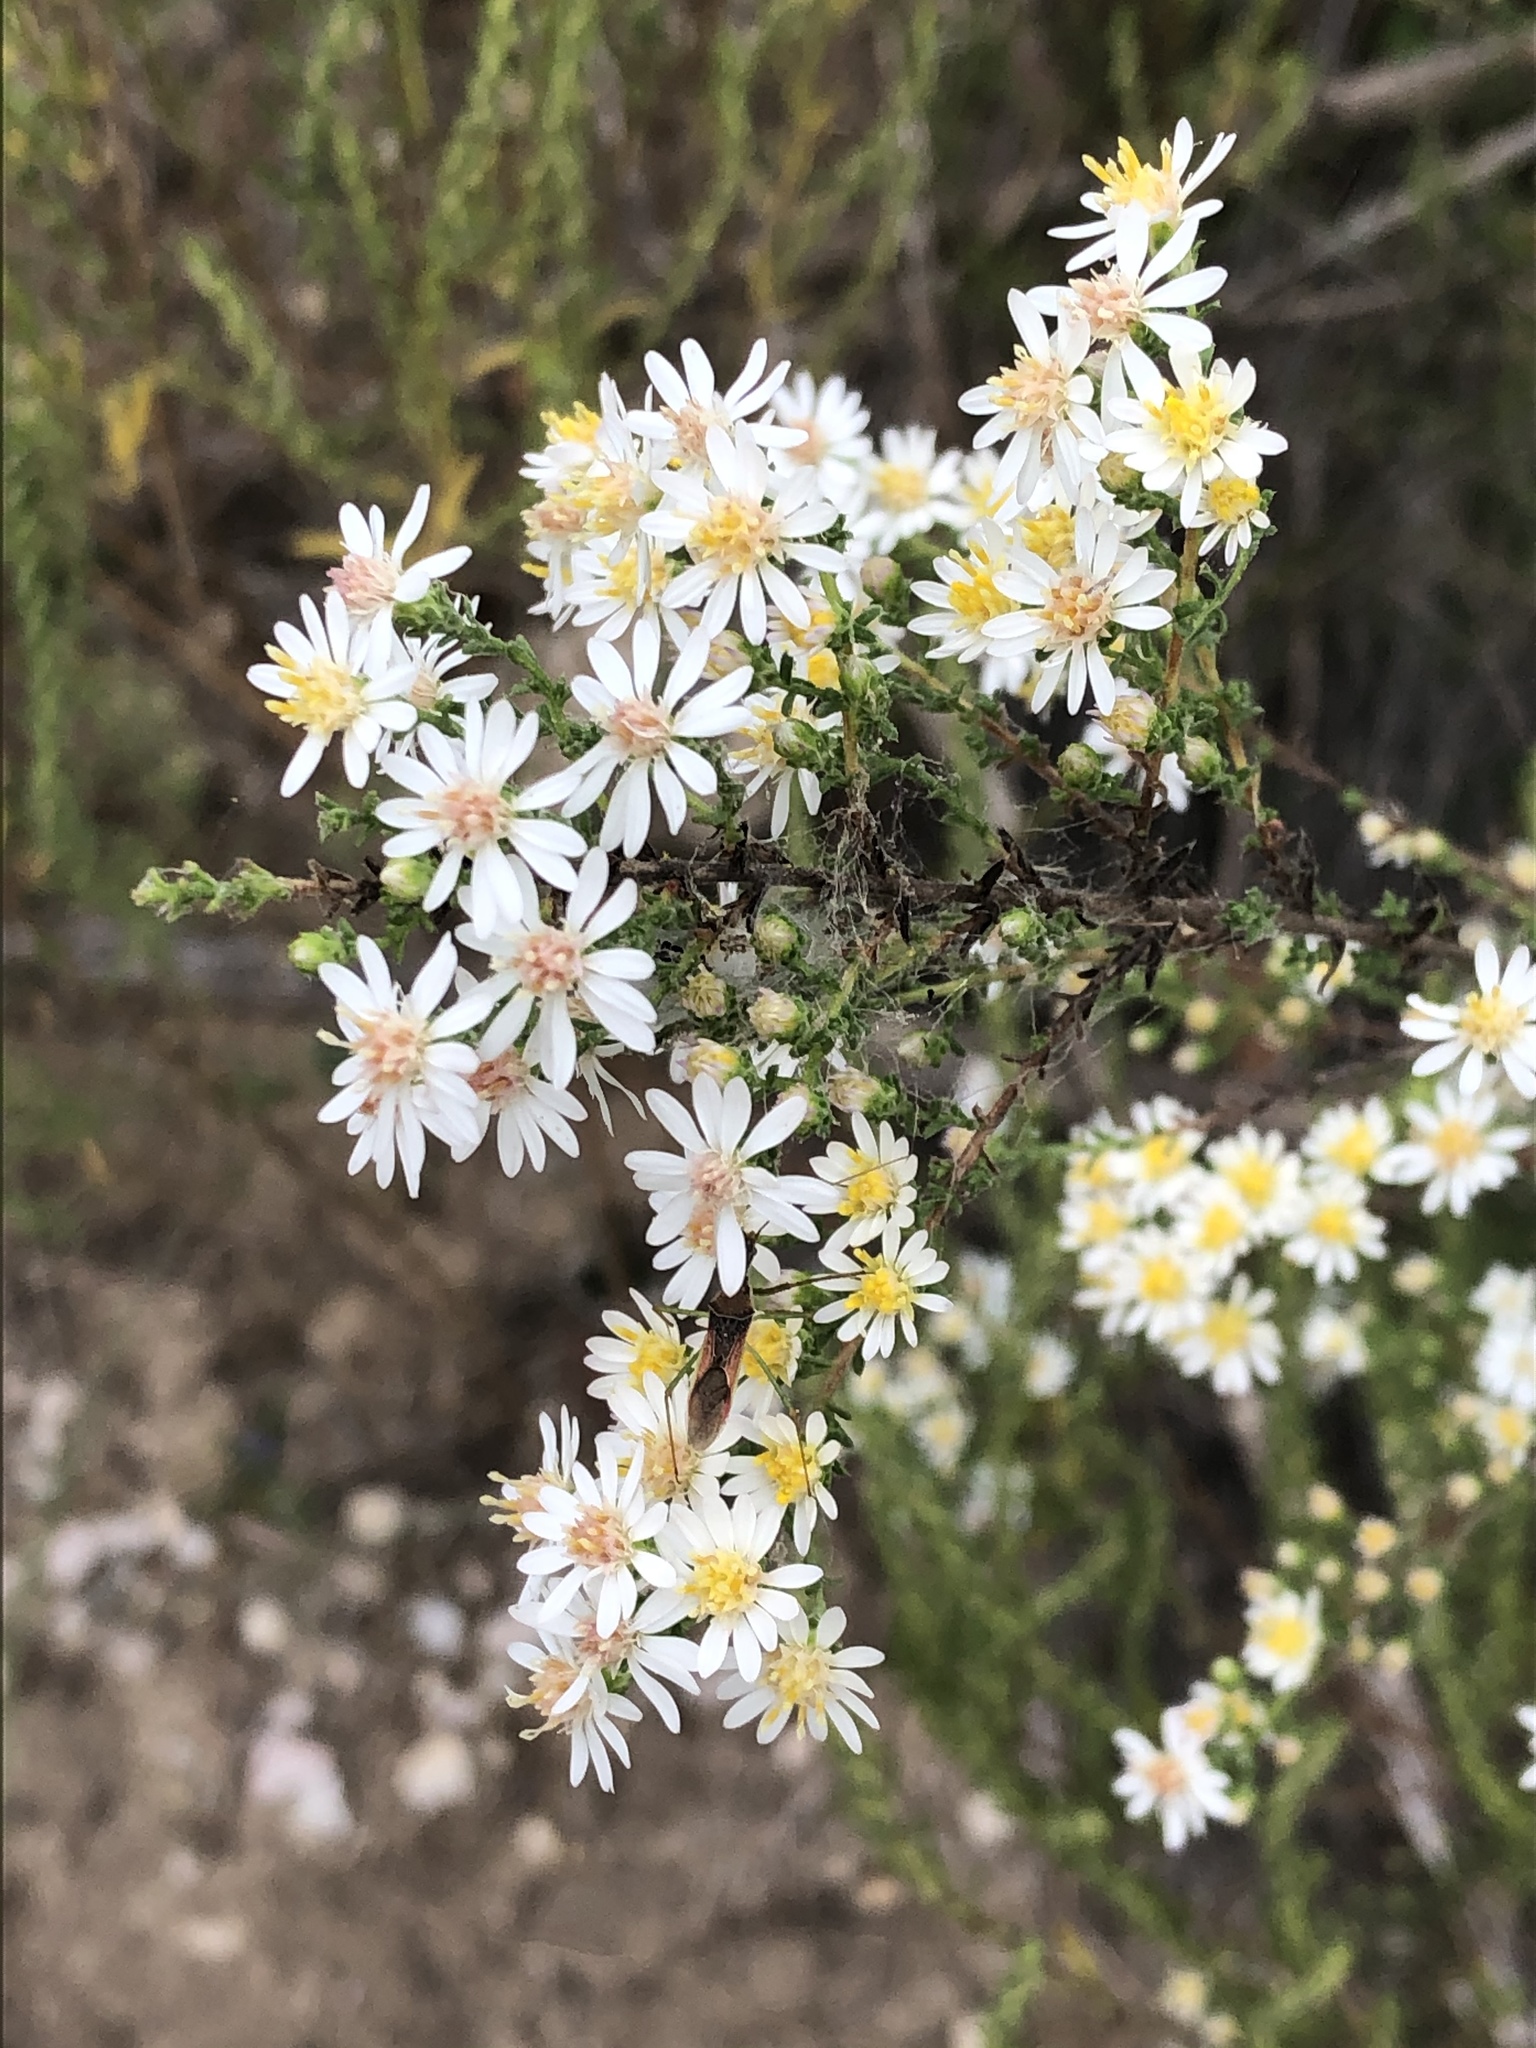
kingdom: Plantae
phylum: Tracheophyta
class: Magnoliopsida
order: Asterales
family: Asteraceae
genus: Symphyotrichum
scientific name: Symphyotrichum ericoides
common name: Heath aster
